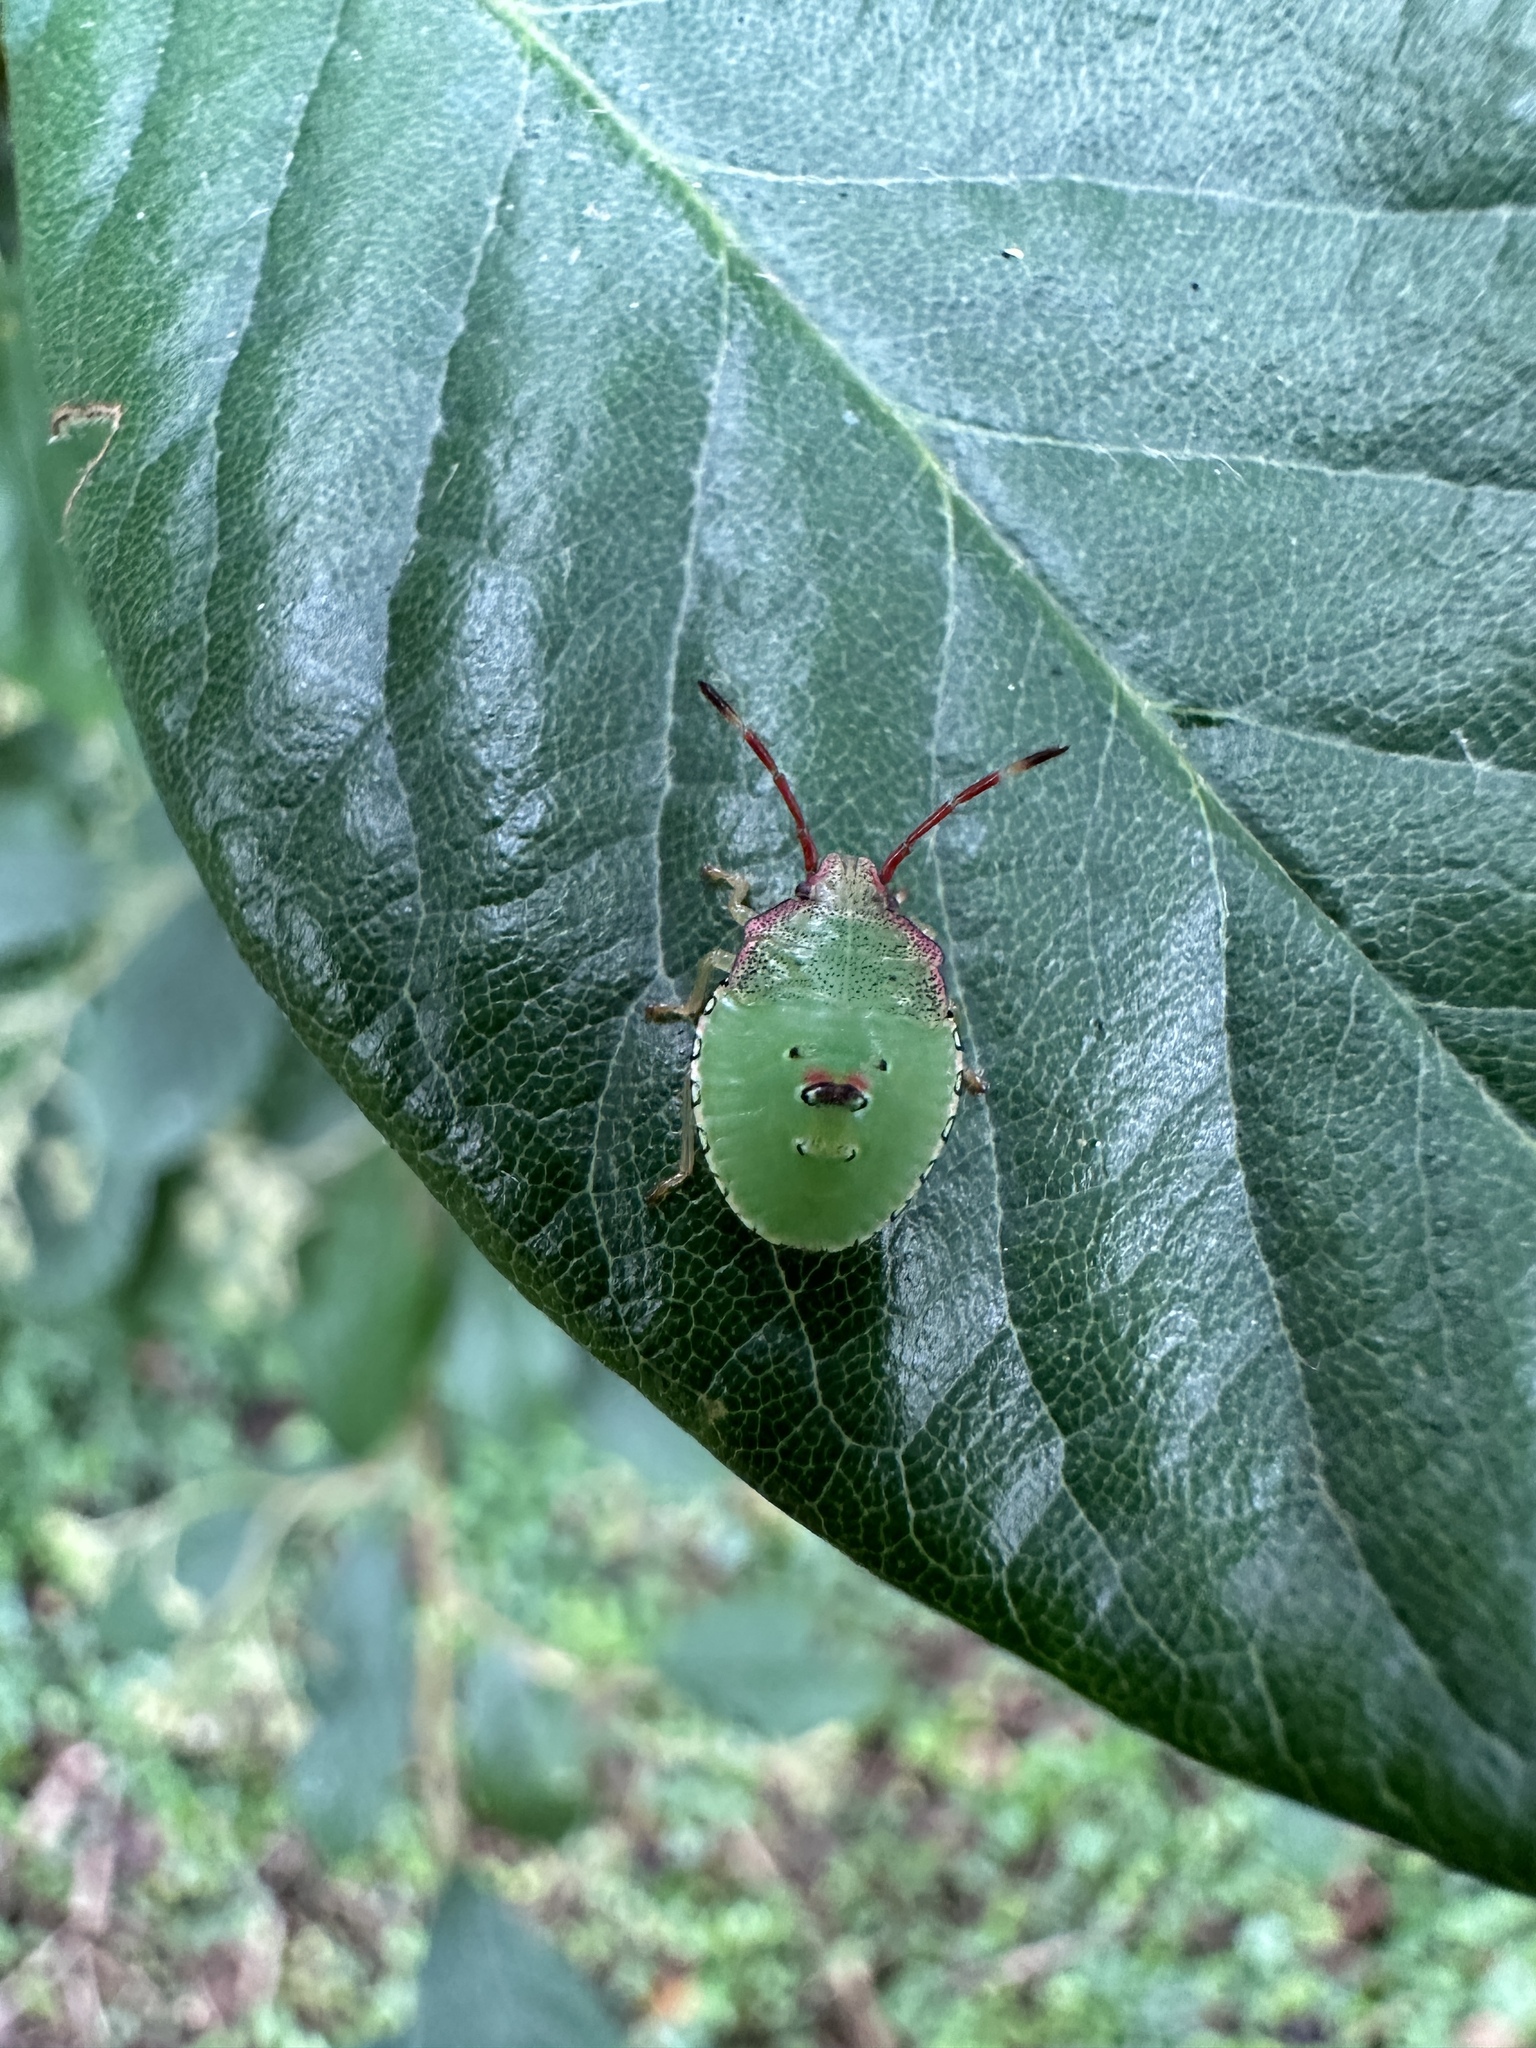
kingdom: Animalia
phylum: Arthropoda
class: Insecta
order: Hemiptera
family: Acanthosomatidae
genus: Acanthosoma
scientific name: Acanthosoma haemorrhoidale
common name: Hawthorn shieldbug
